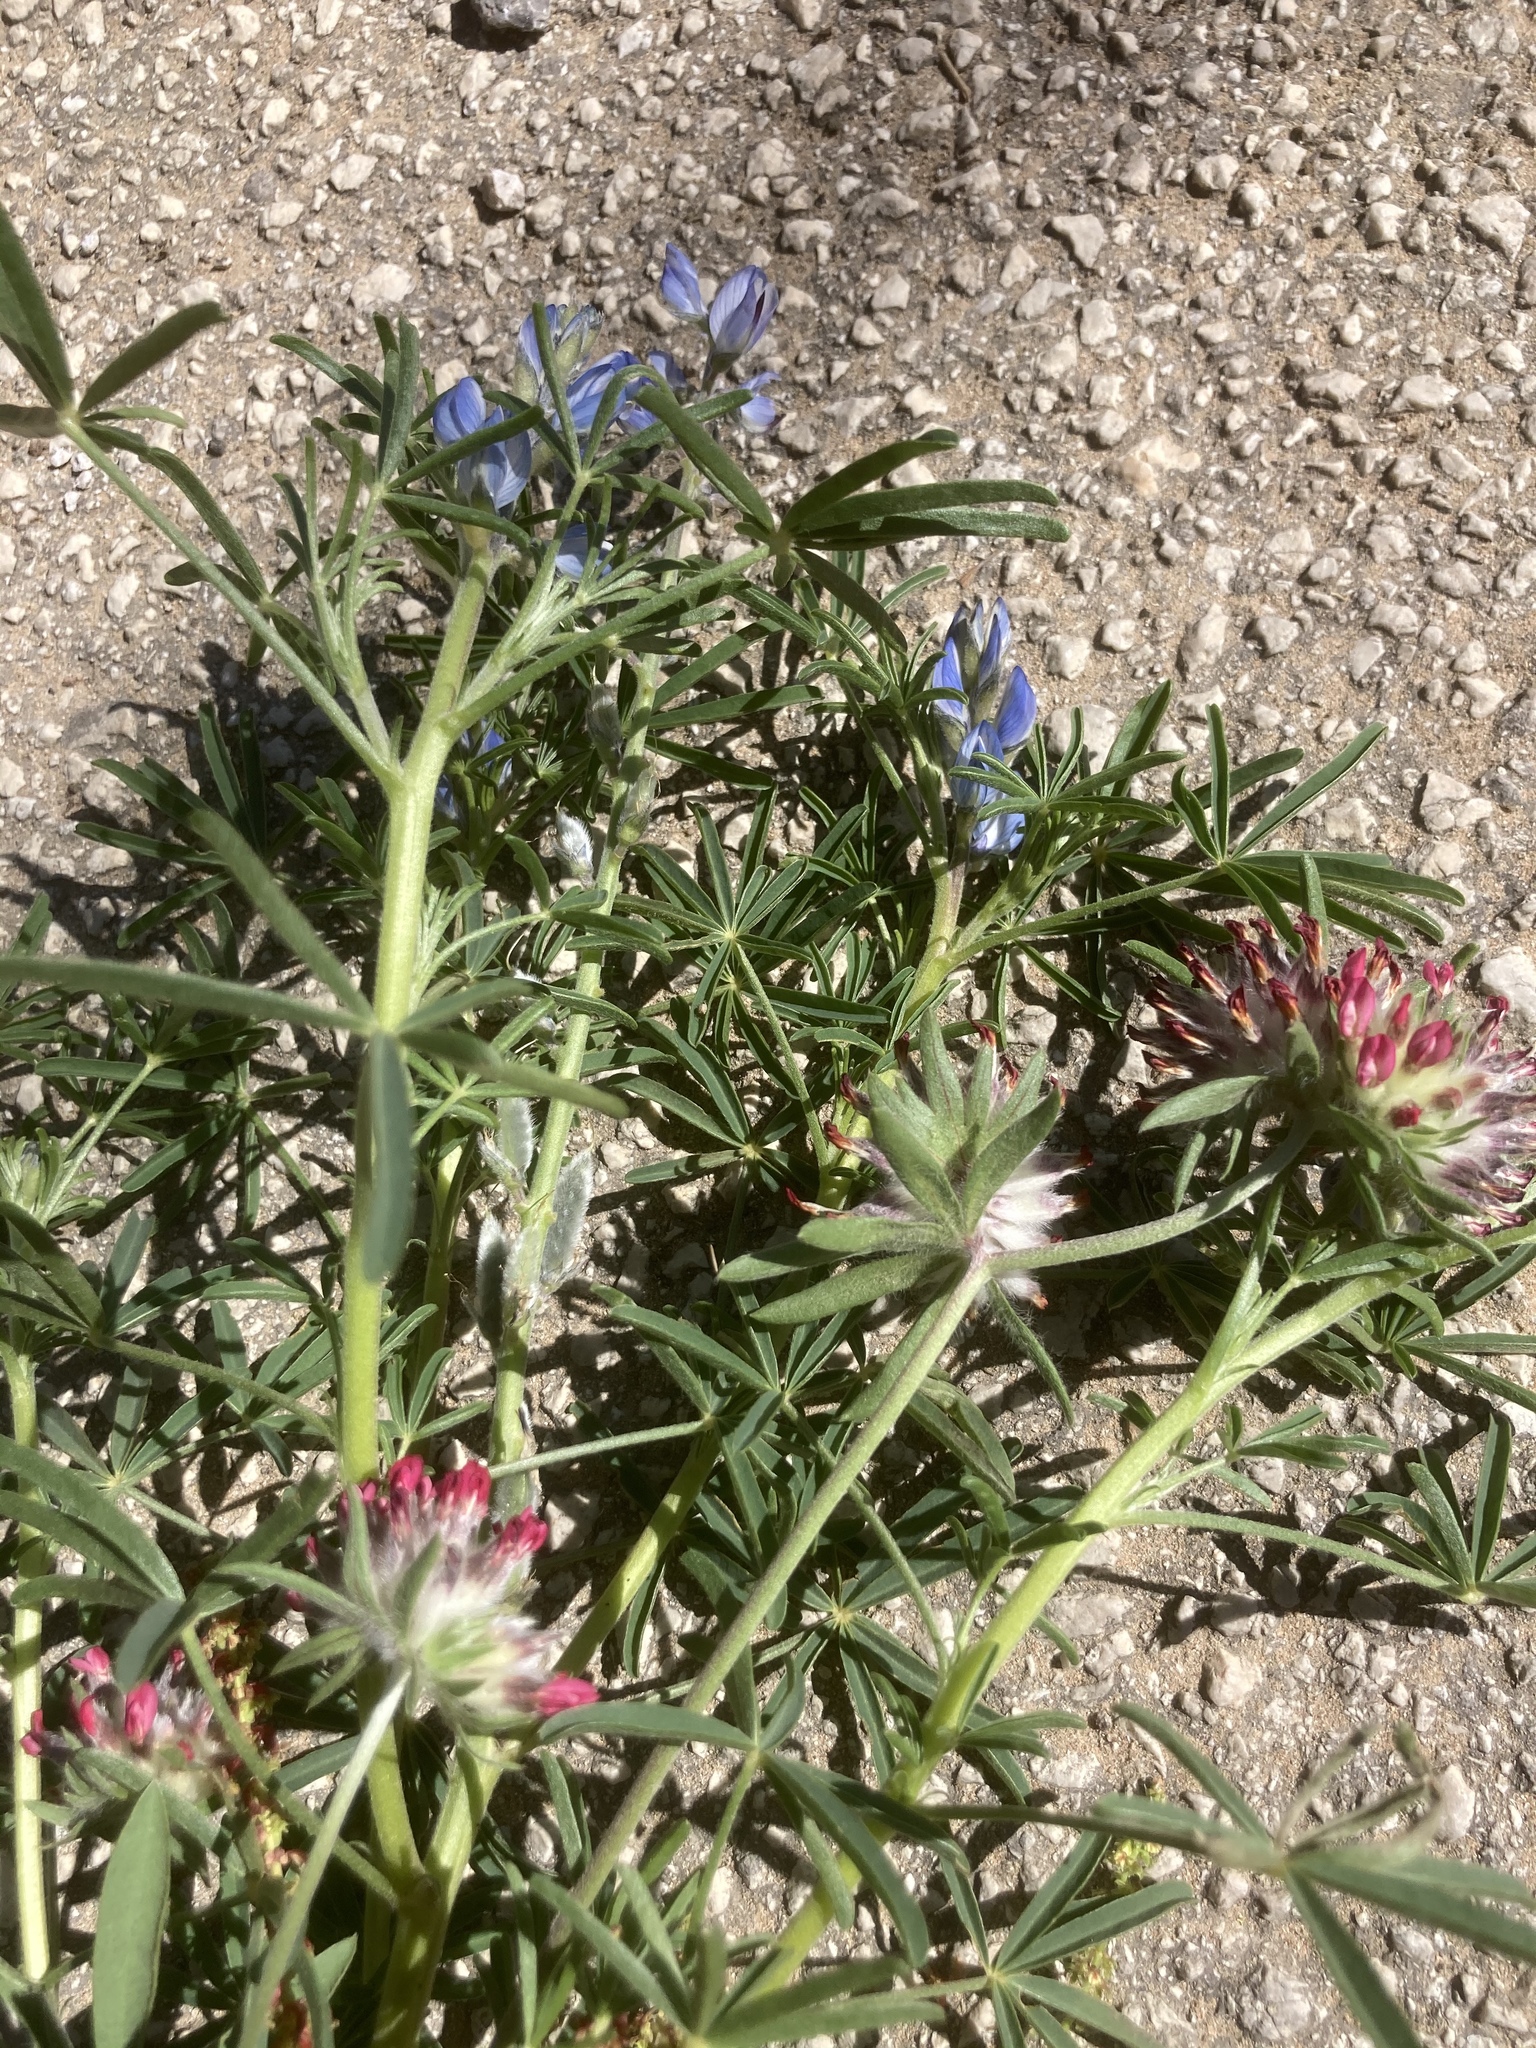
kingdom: Plantae
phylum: Tracheophyta
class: Magnoliopsida
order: Fabales
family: Fabaceae
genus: Lupinus
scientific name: Lupinus angustifolius
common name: Narrow-leaved lupin
